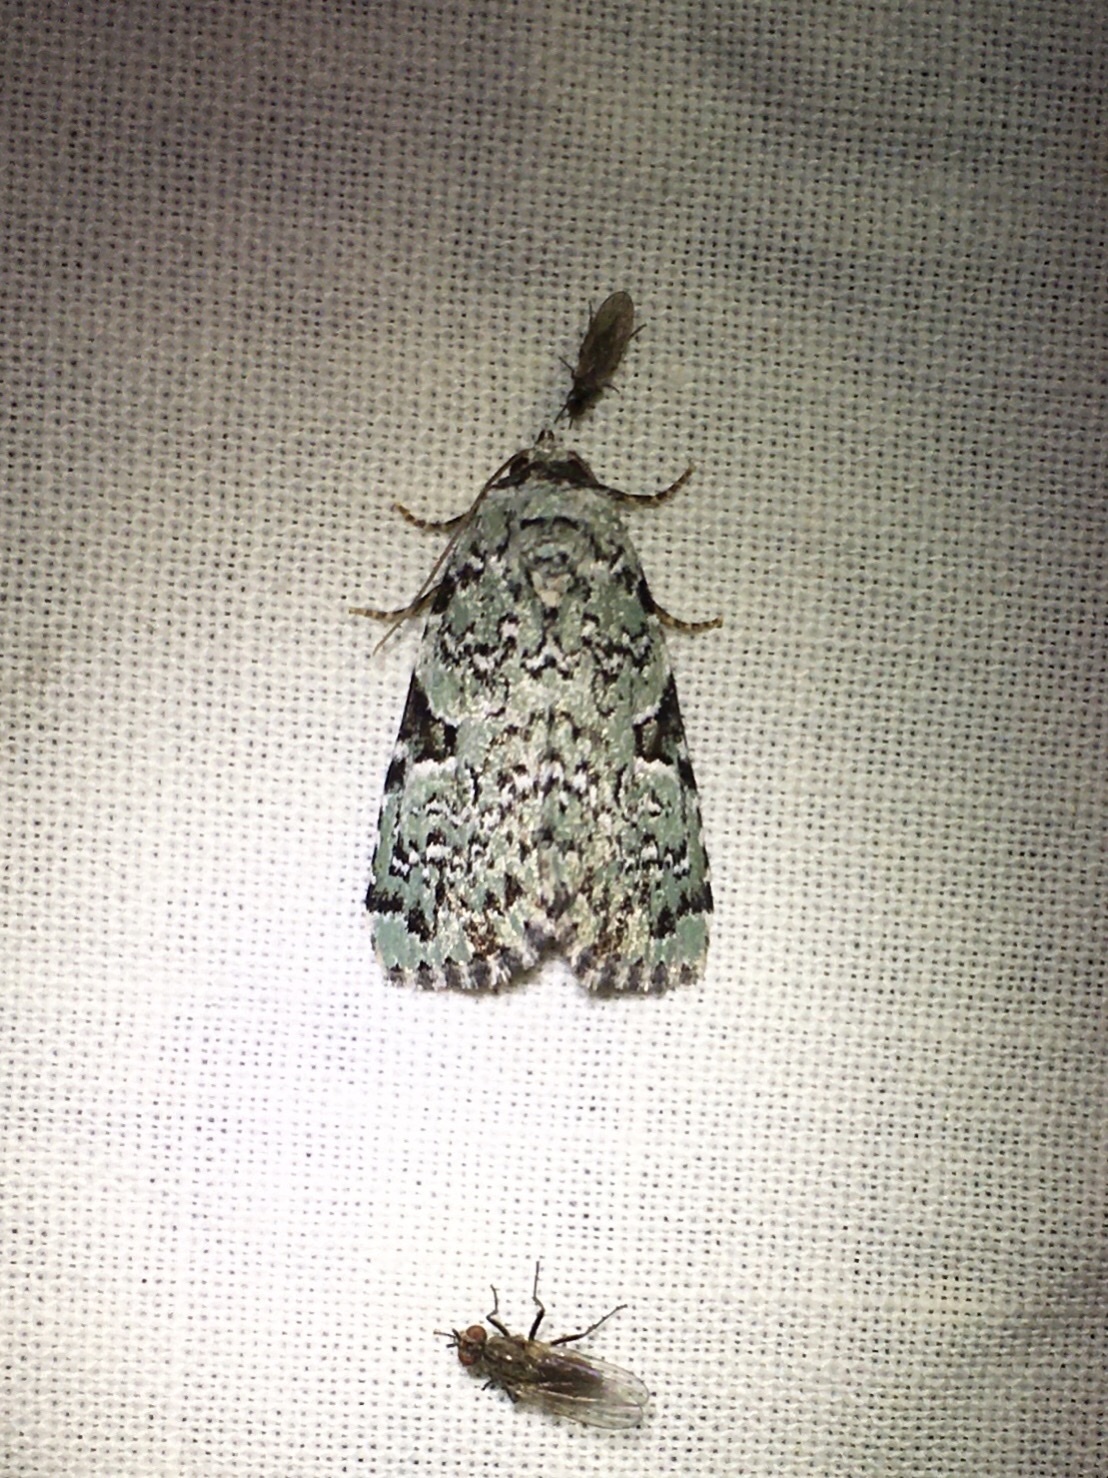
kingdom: Animalia
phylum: Arthropoda
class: Insecta
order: Lepidoptera
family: Noctuidae
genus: Leuconycta
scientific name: Leuconycta diphteroides
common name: Green leuconycta moth
